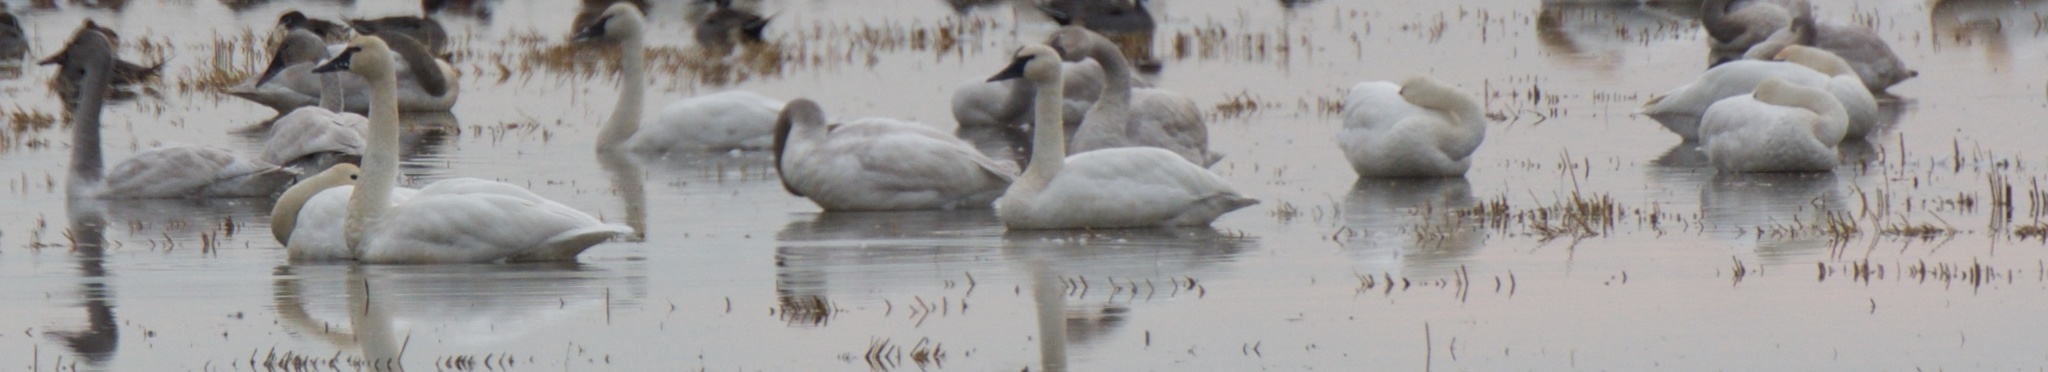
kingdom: Animalia
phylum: Chordata
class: Aves
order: Anseriformes
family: Anatidae
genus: Cygnus
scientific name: Cygnus columbianus
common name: Tundra swan
